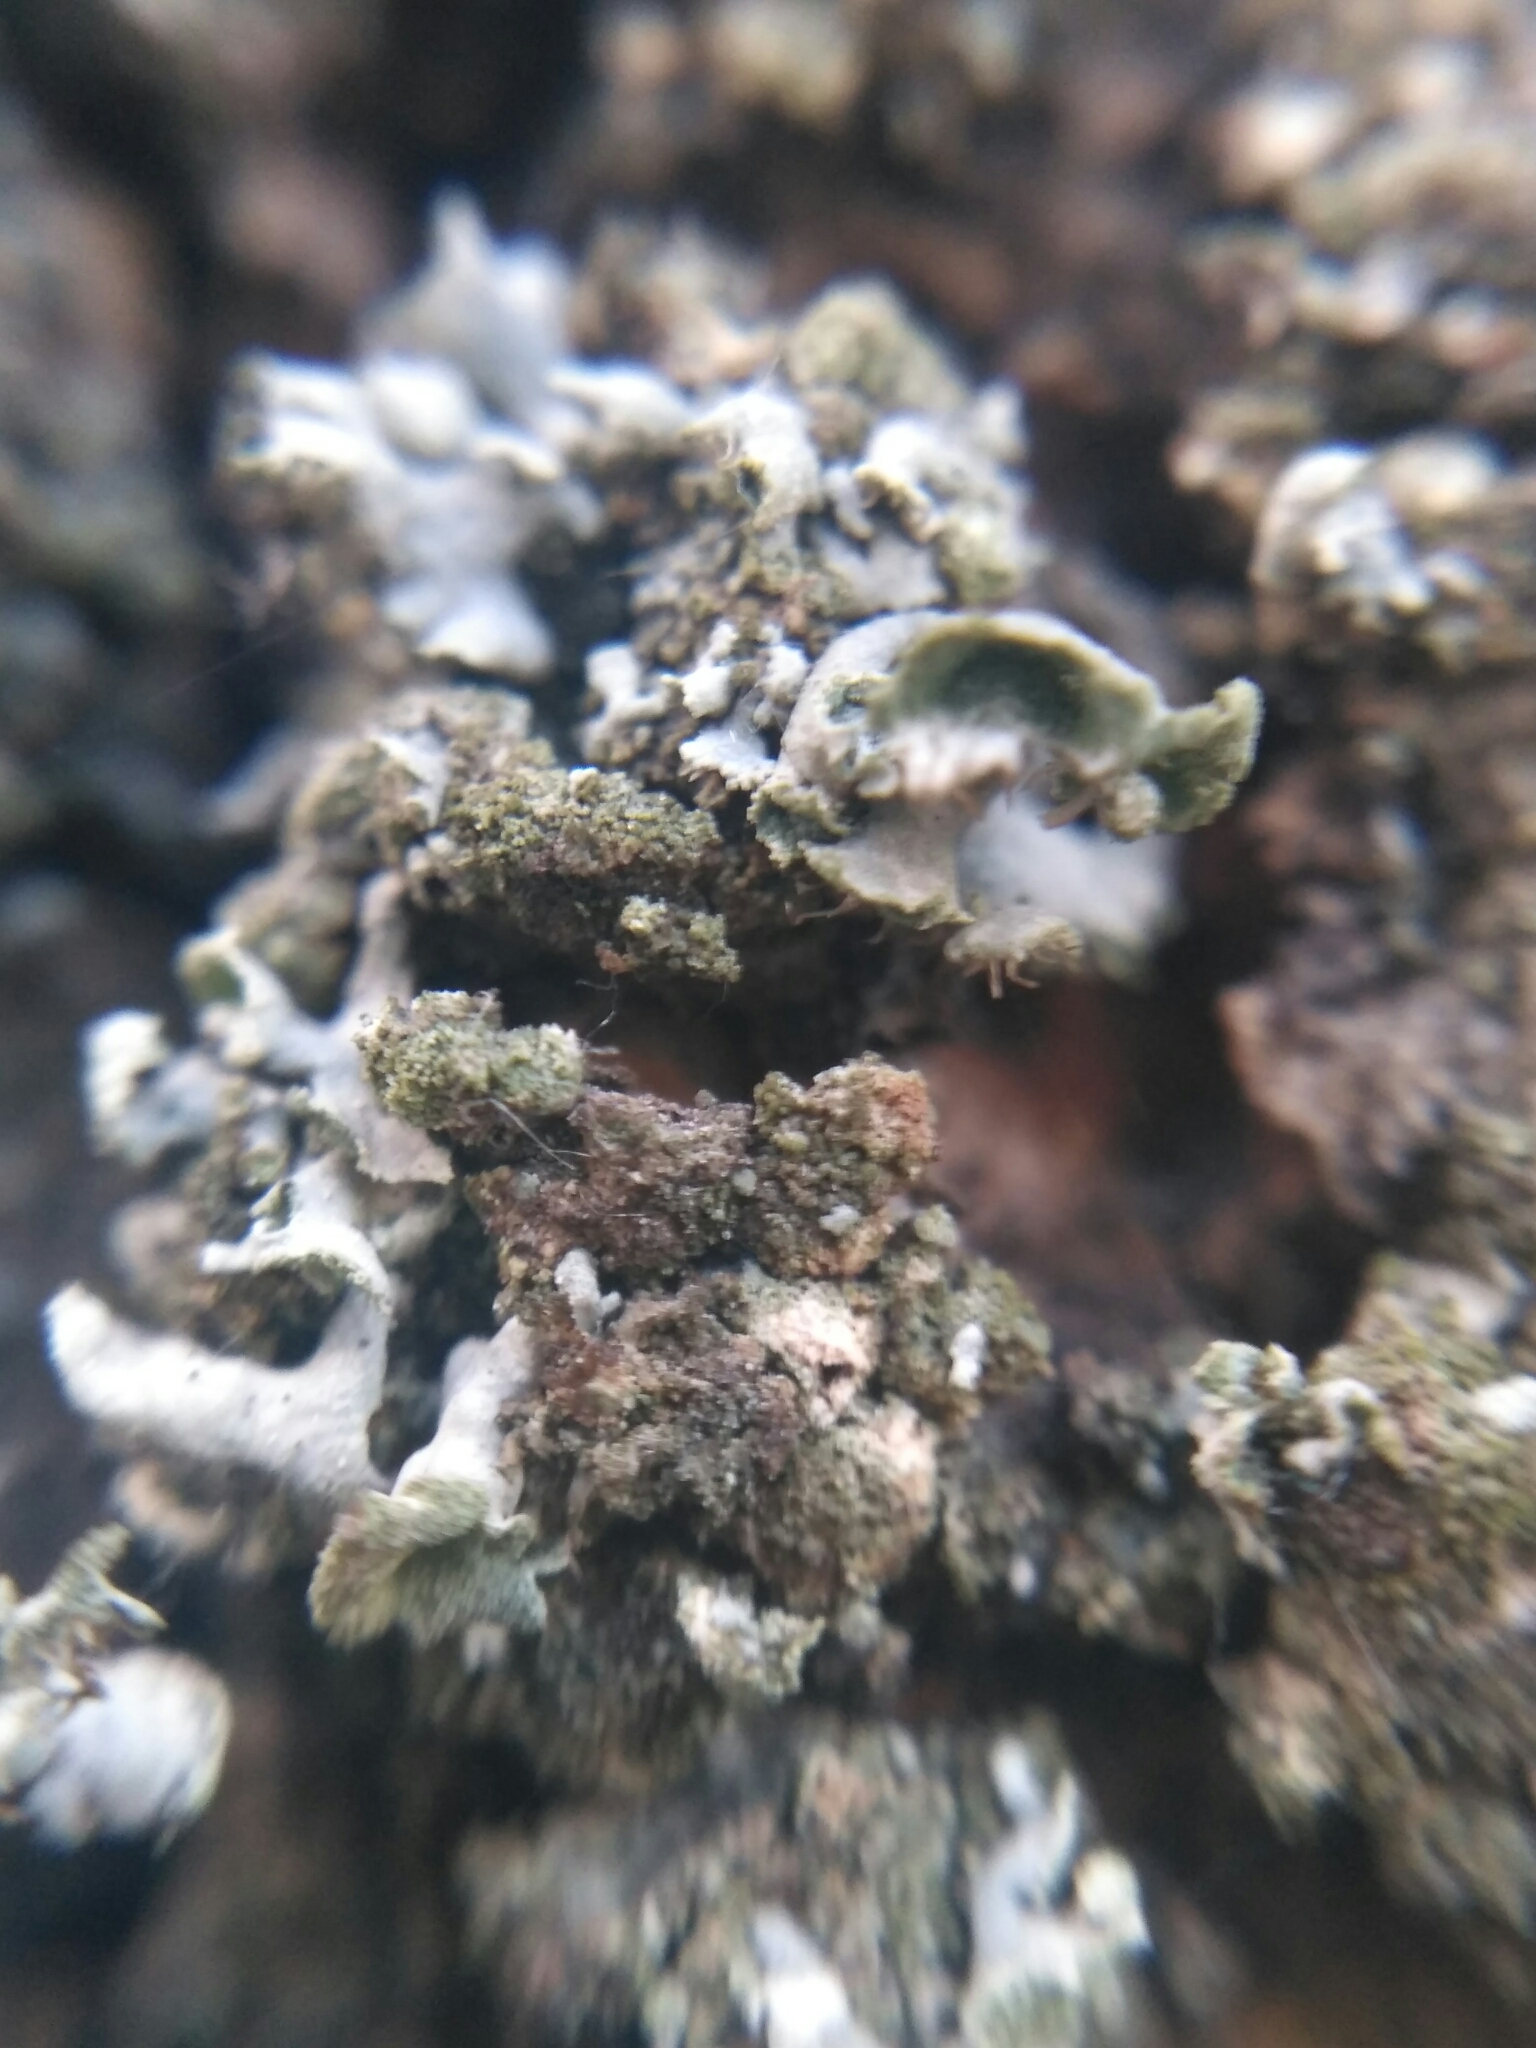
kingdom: Fungi
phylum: Ascomycota
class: Lecanoromycetes
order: Caliciales
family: Physciaceae
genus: Physcia
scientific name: Physcia tenella
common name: Fringed rosette lichen
